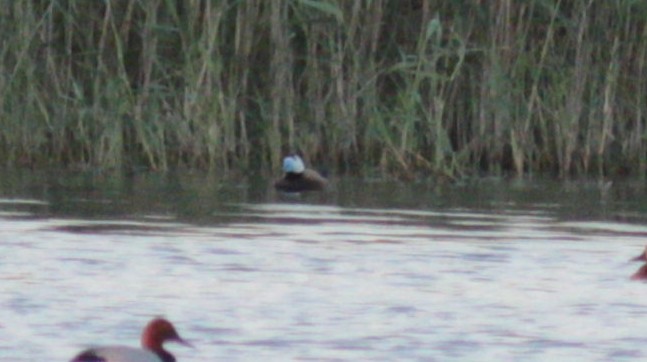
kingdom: Animalia
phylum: Chordata
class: Aves
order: Anseriformes
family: Anatidae
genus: Oxyura
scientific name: Oxyura leucocephala
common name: White-headed duck
